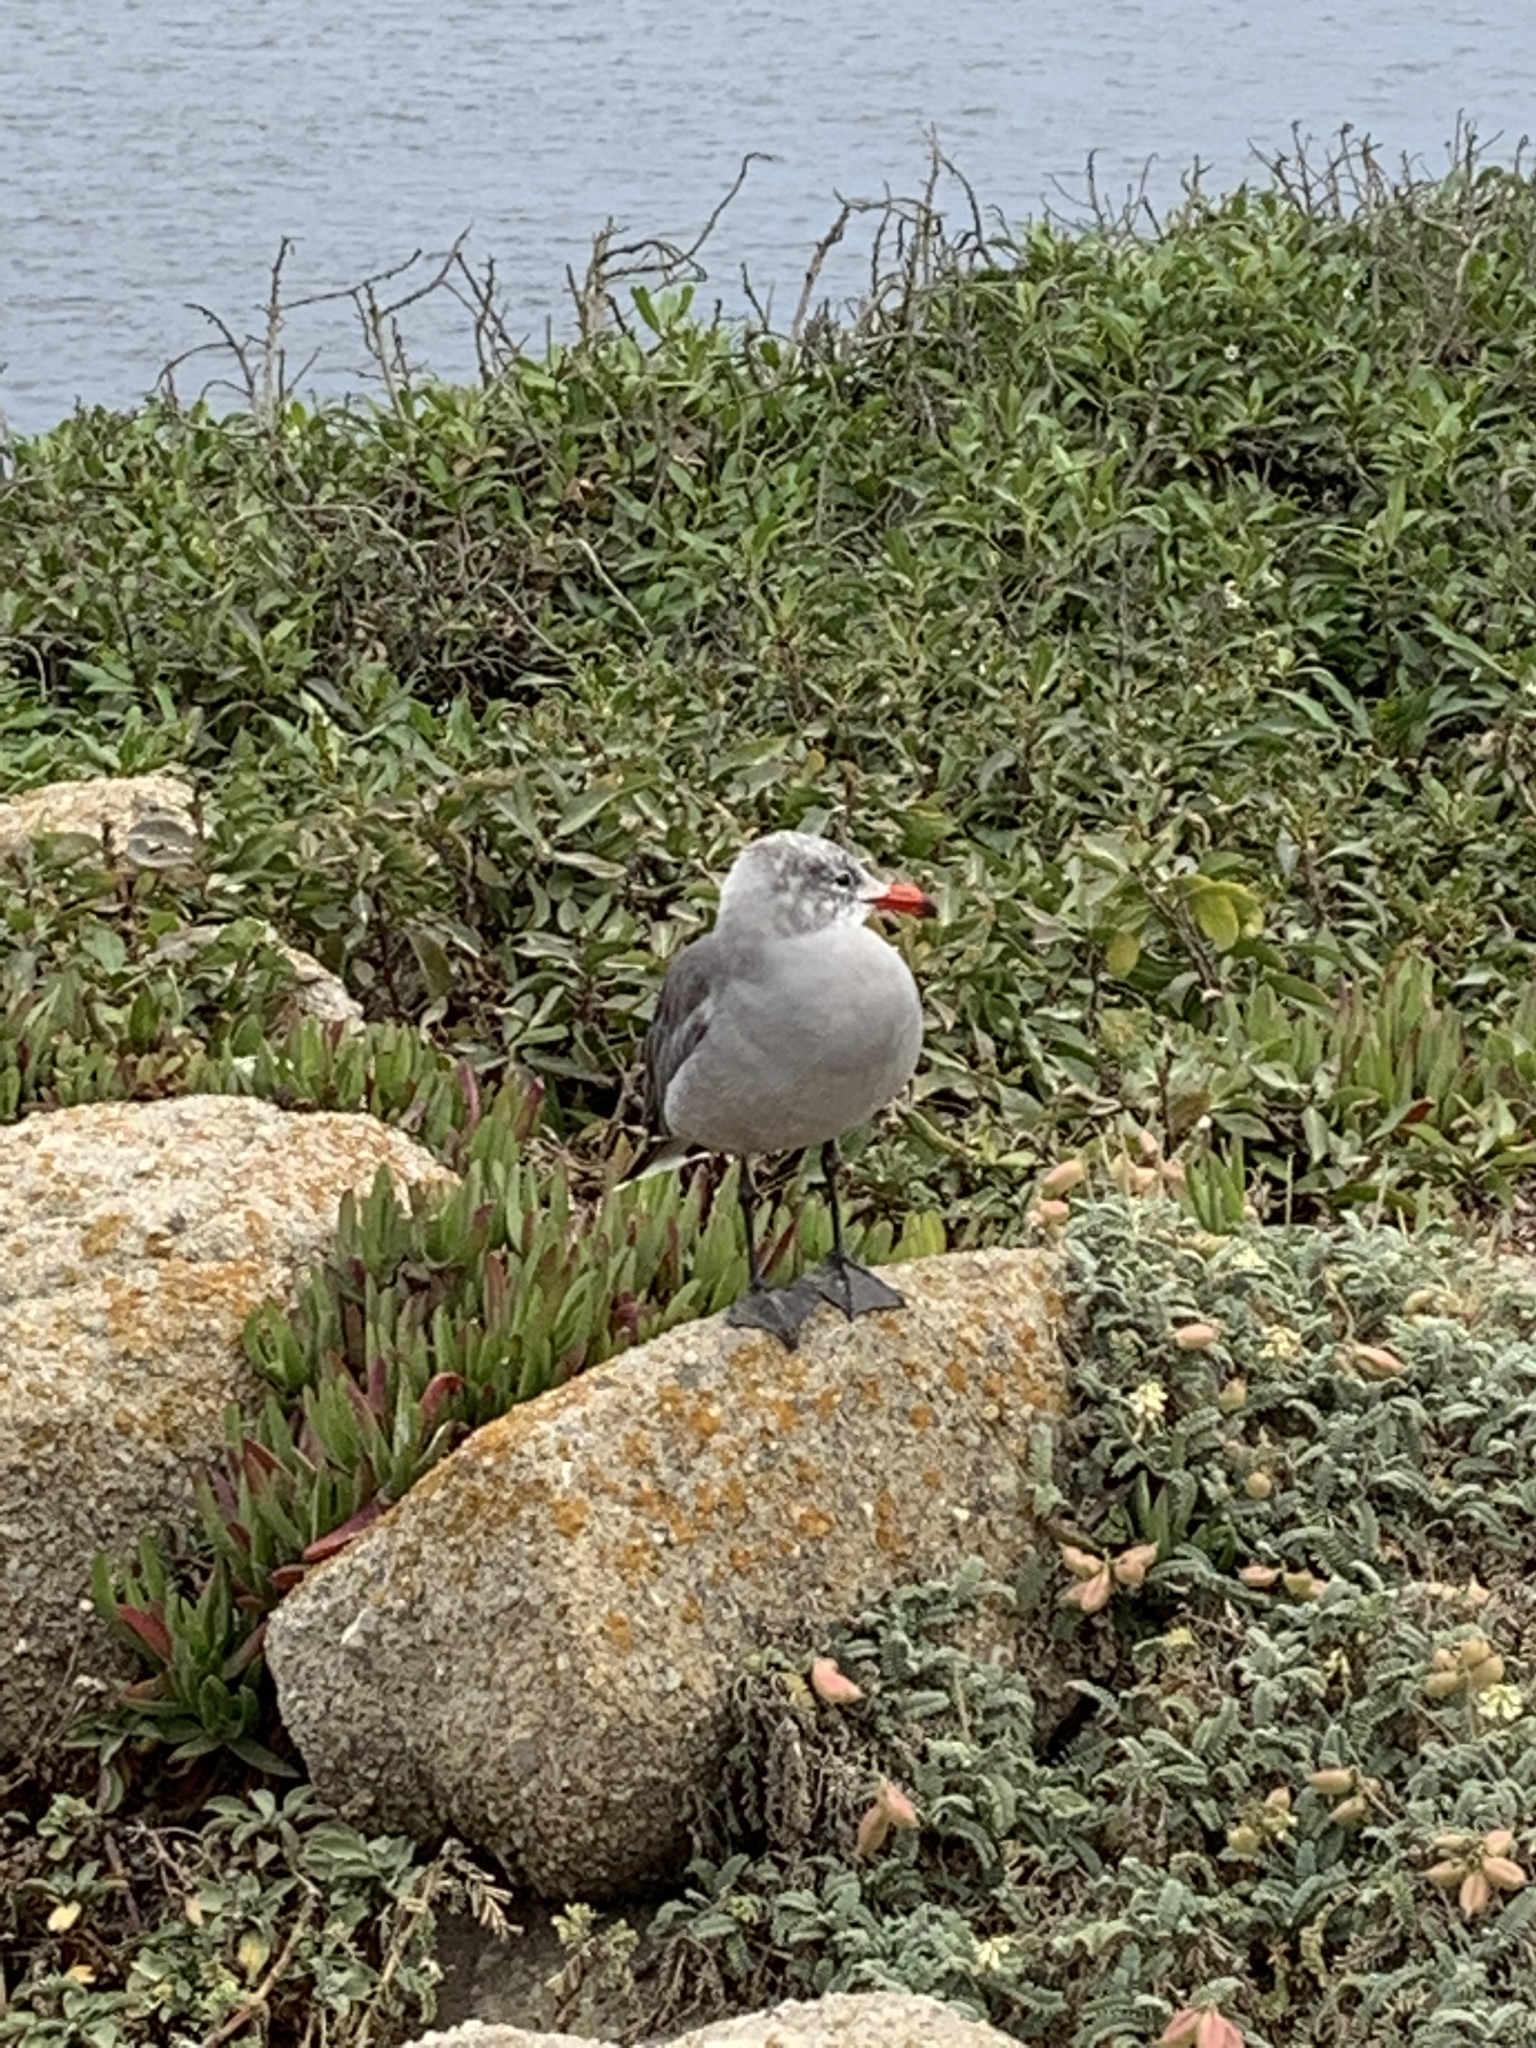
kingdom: Animalia
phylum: Chordata
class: Aves
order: Charadriiformes
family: Laridae
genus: Larus
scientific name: Larus heermanni
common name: Heermann's gull
